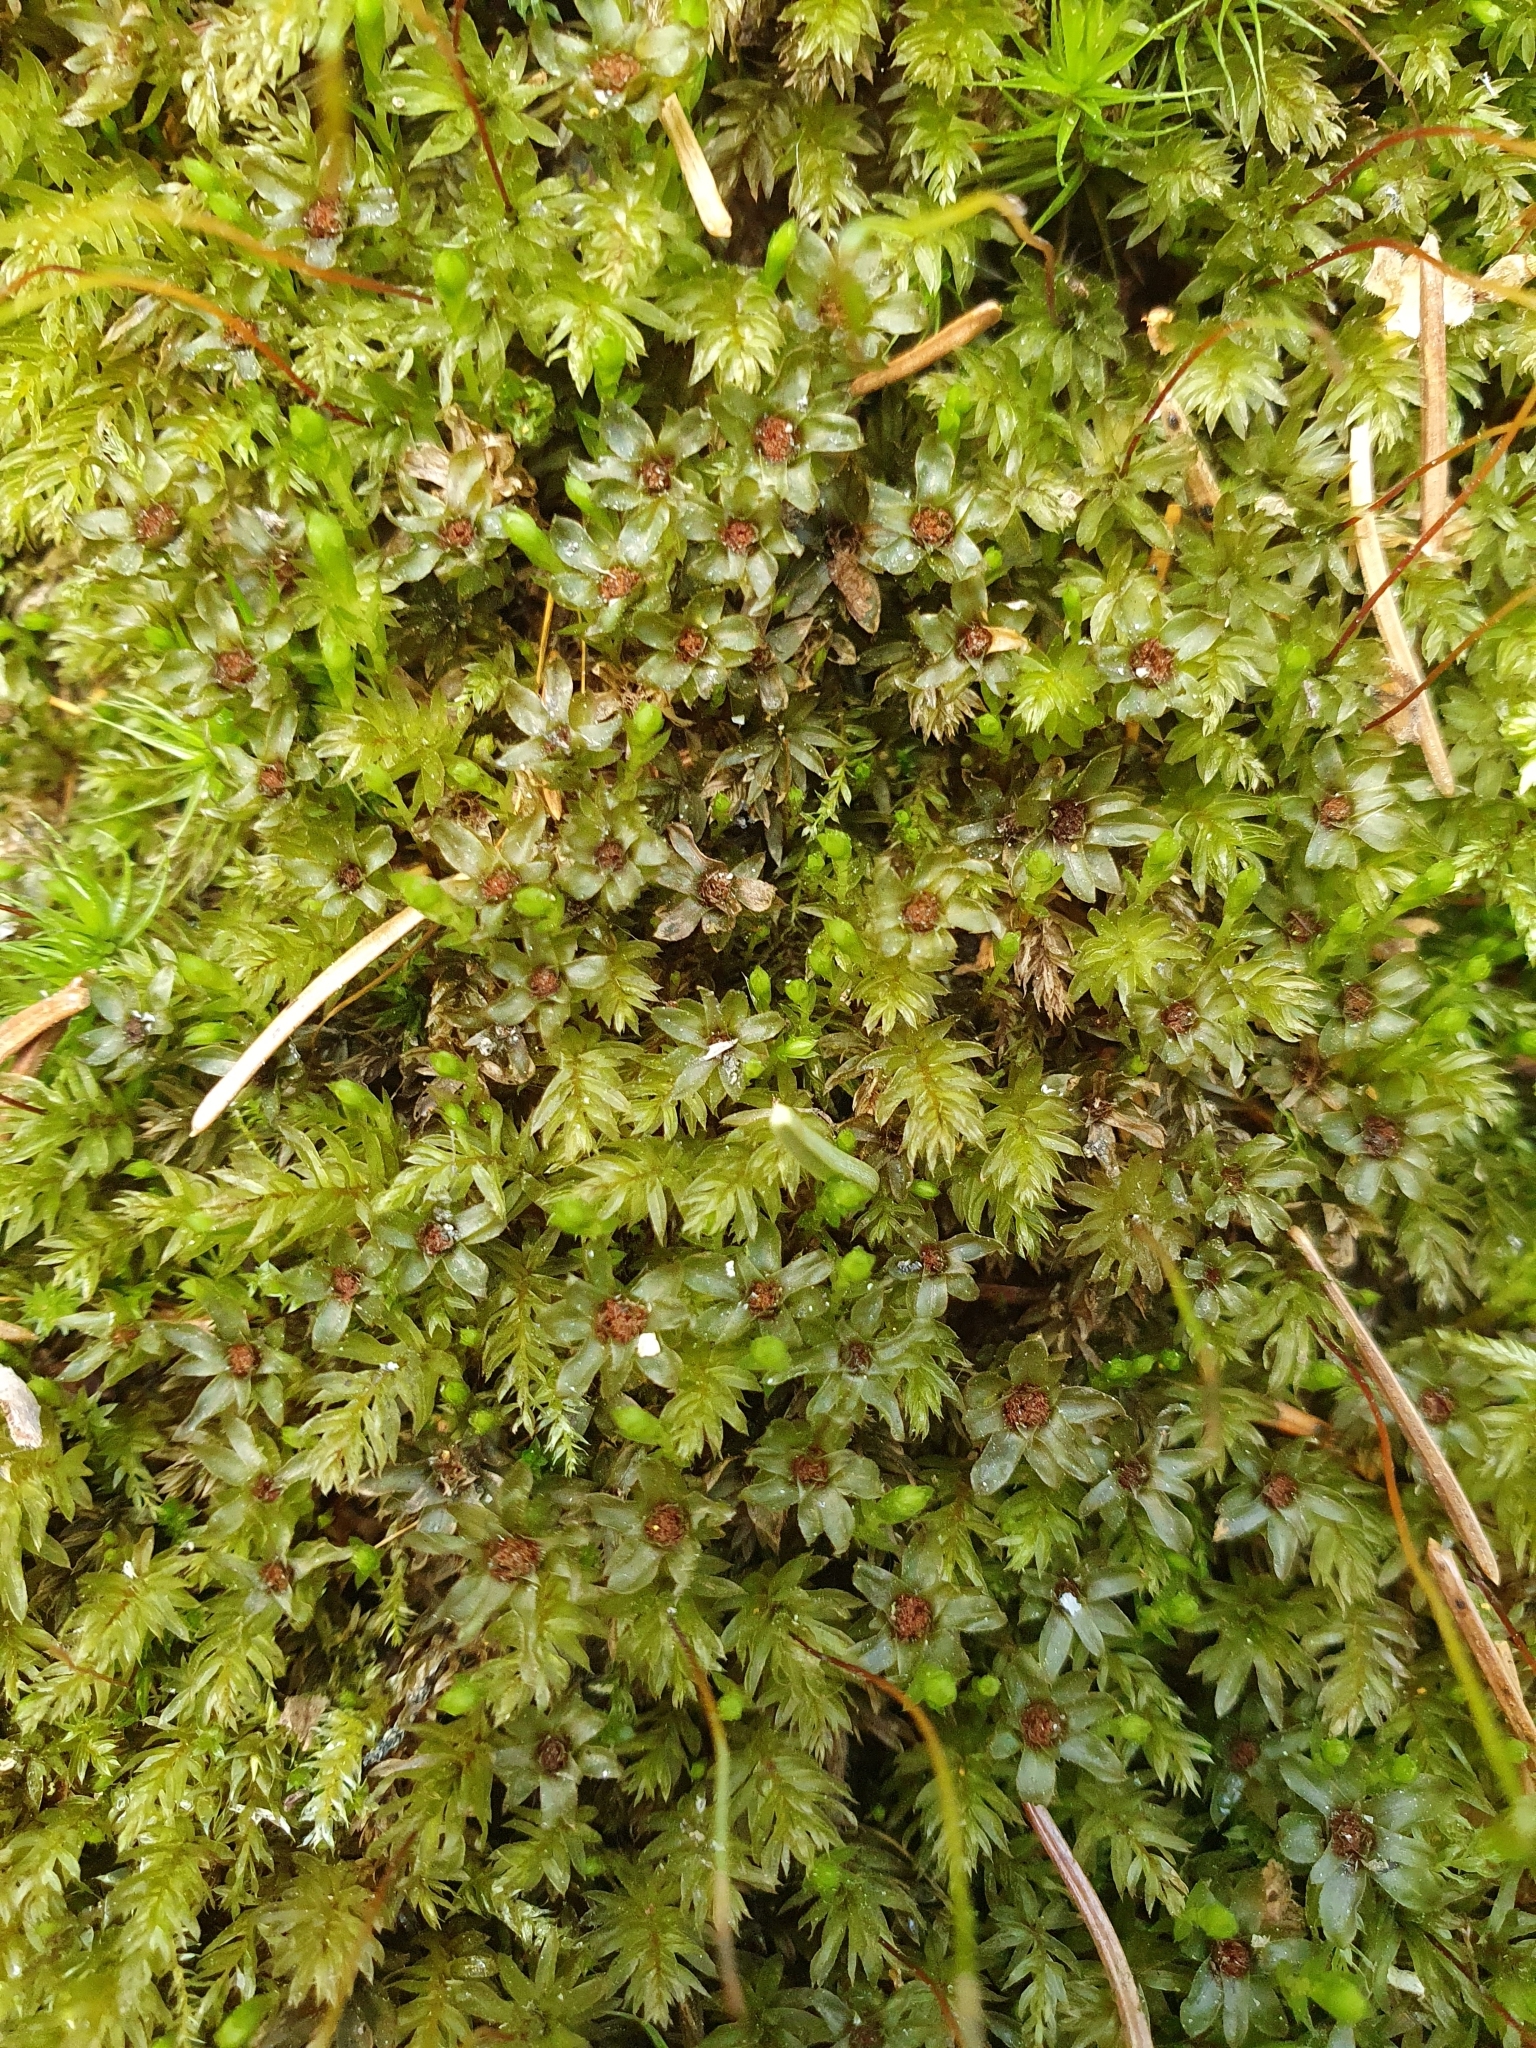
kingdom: Plantae
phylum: Bryophyta
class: Bryopsida
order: Bryales
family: Mniaceae
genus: Mnium
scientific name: Mnium hornum
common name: Swan's-neck leafy moss
